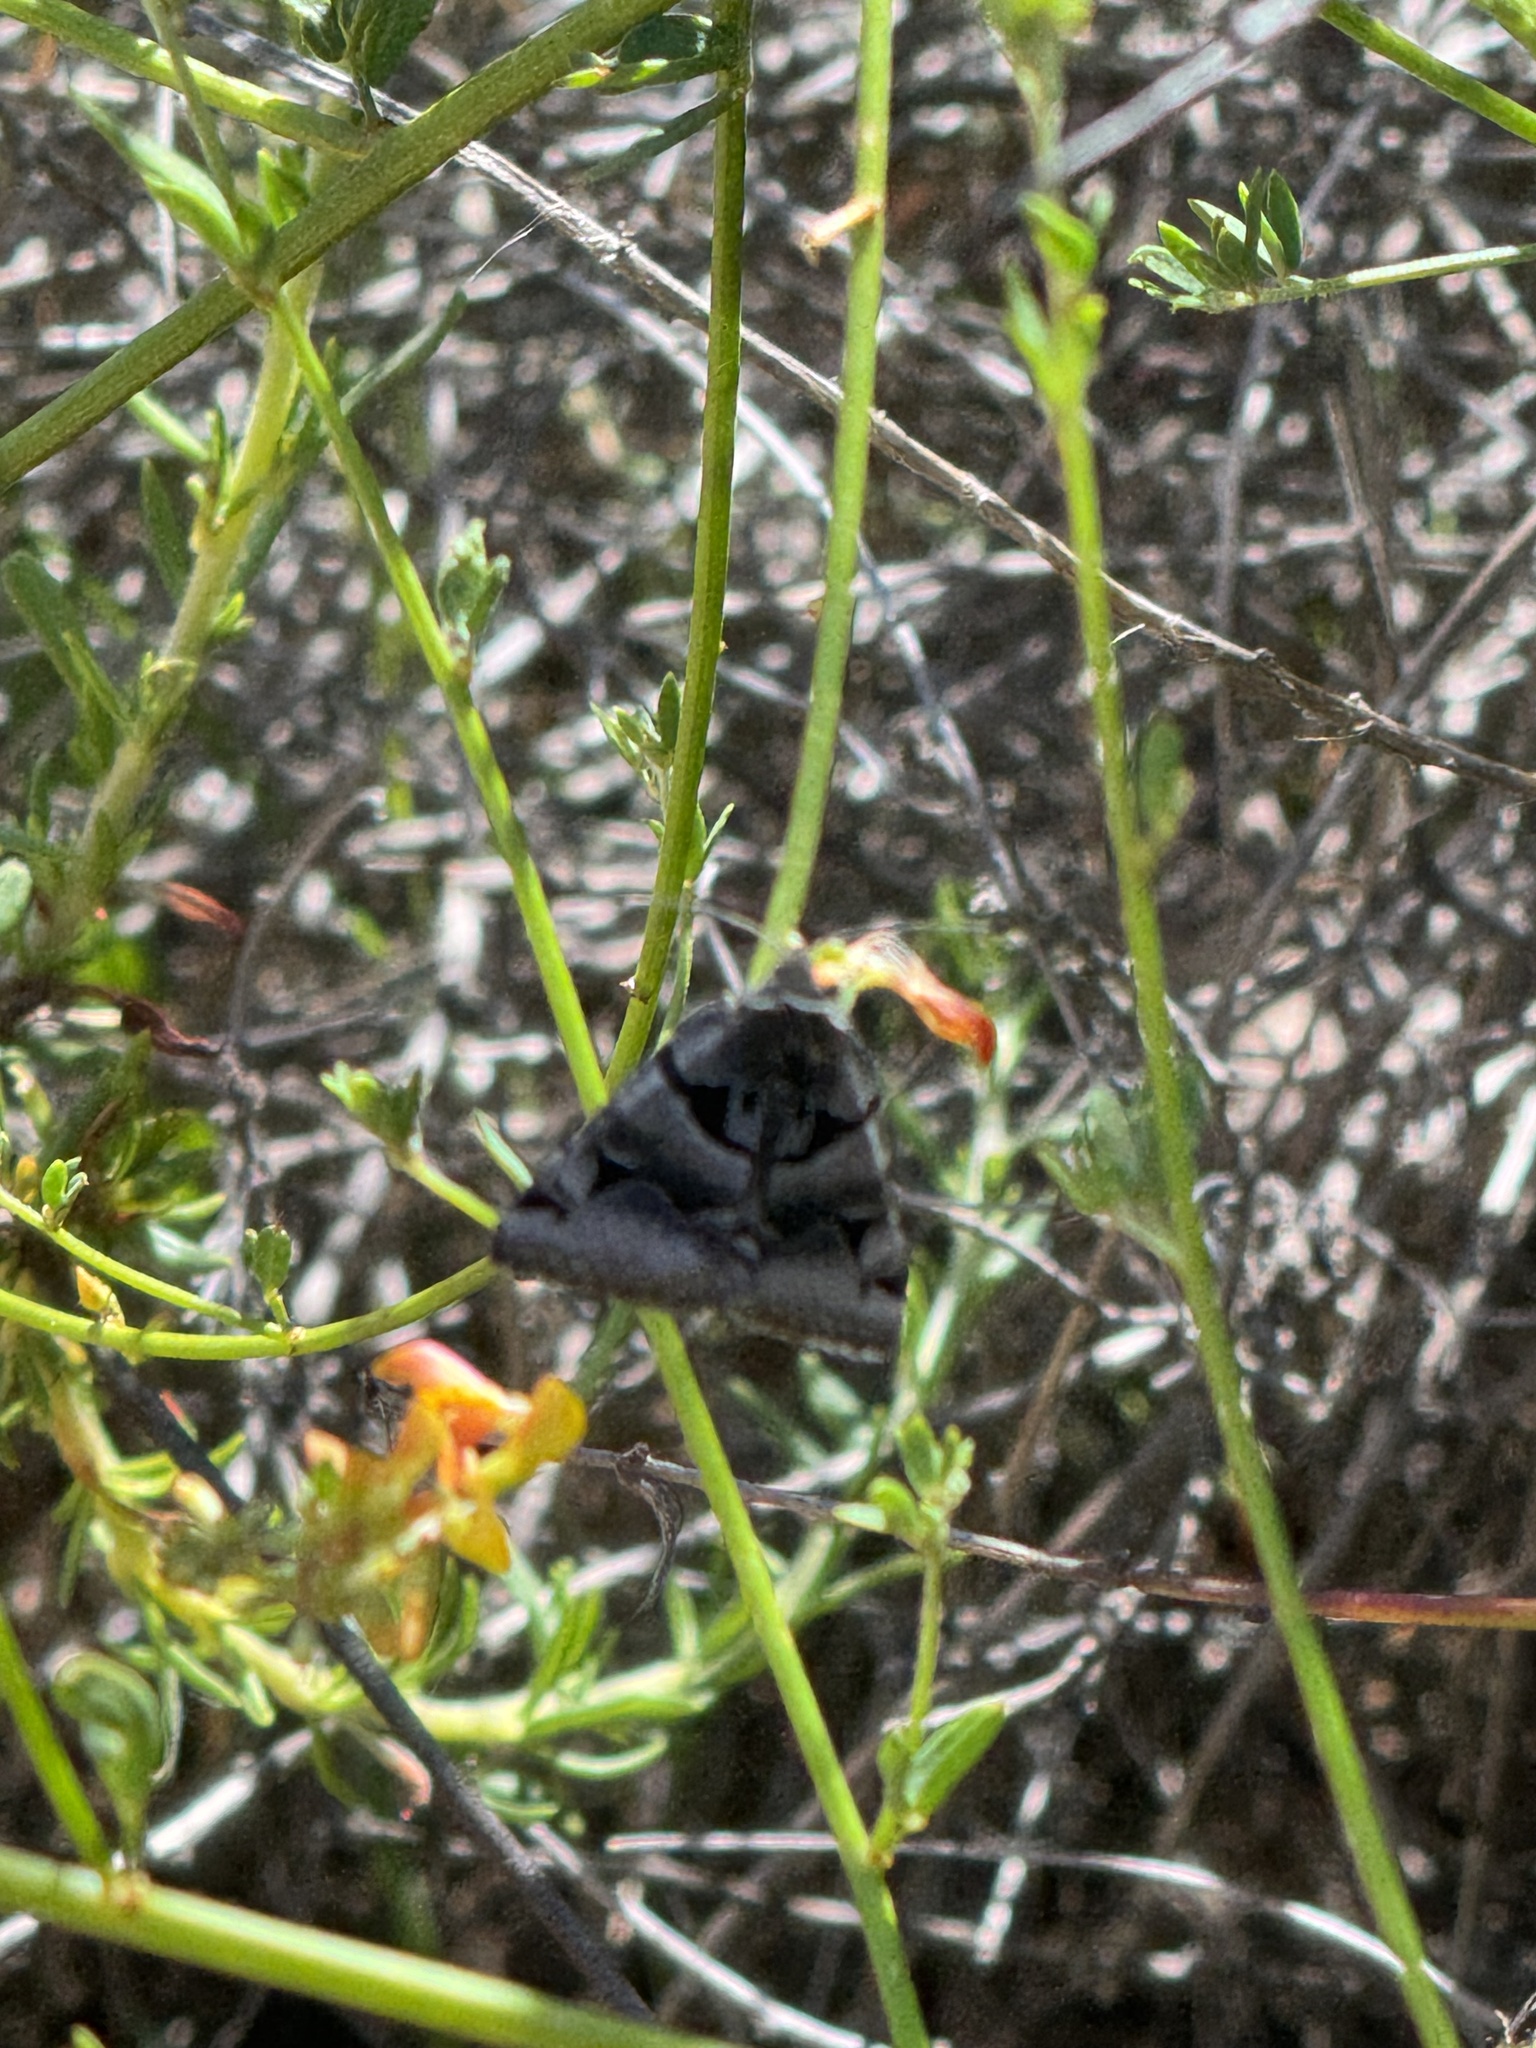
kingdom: Animalia
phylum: Arthropoda
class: Insecta
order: Lepidoptera
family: Erebidae
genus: Euclidia
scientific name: Euclidia ardita
